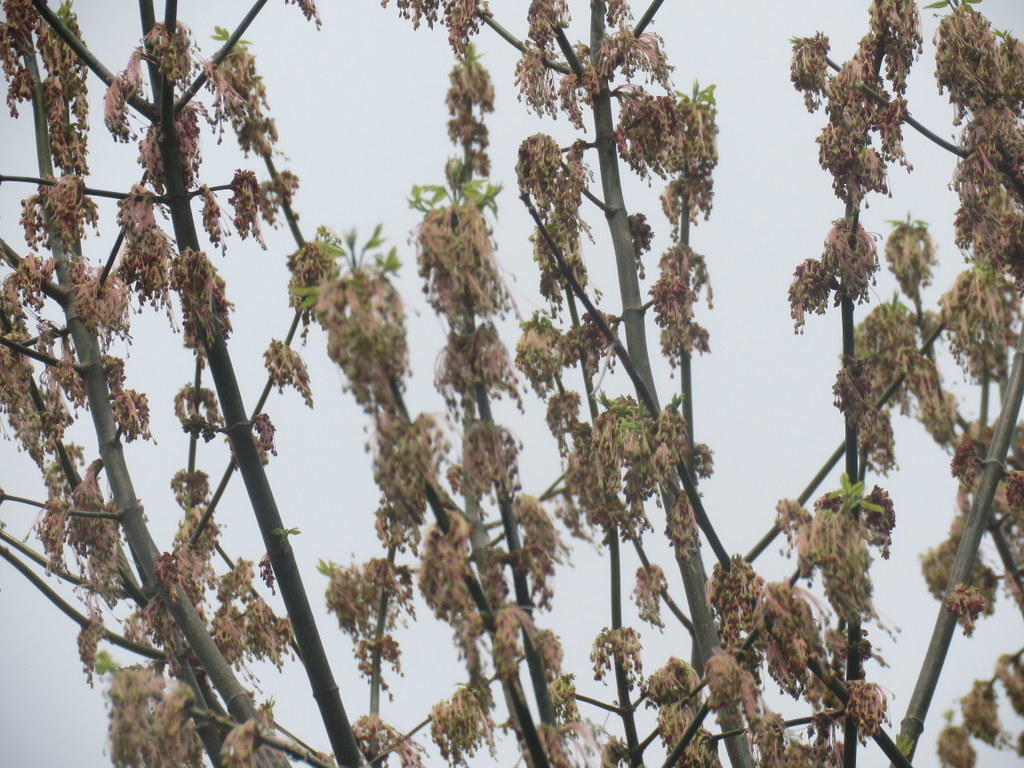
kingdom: Plantae
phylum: Tracheophyta
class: Magnoliopsida
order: Sapindales
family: Sapindaceae
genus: Acer
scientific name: Acer negundo
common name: Ashleaf maple
